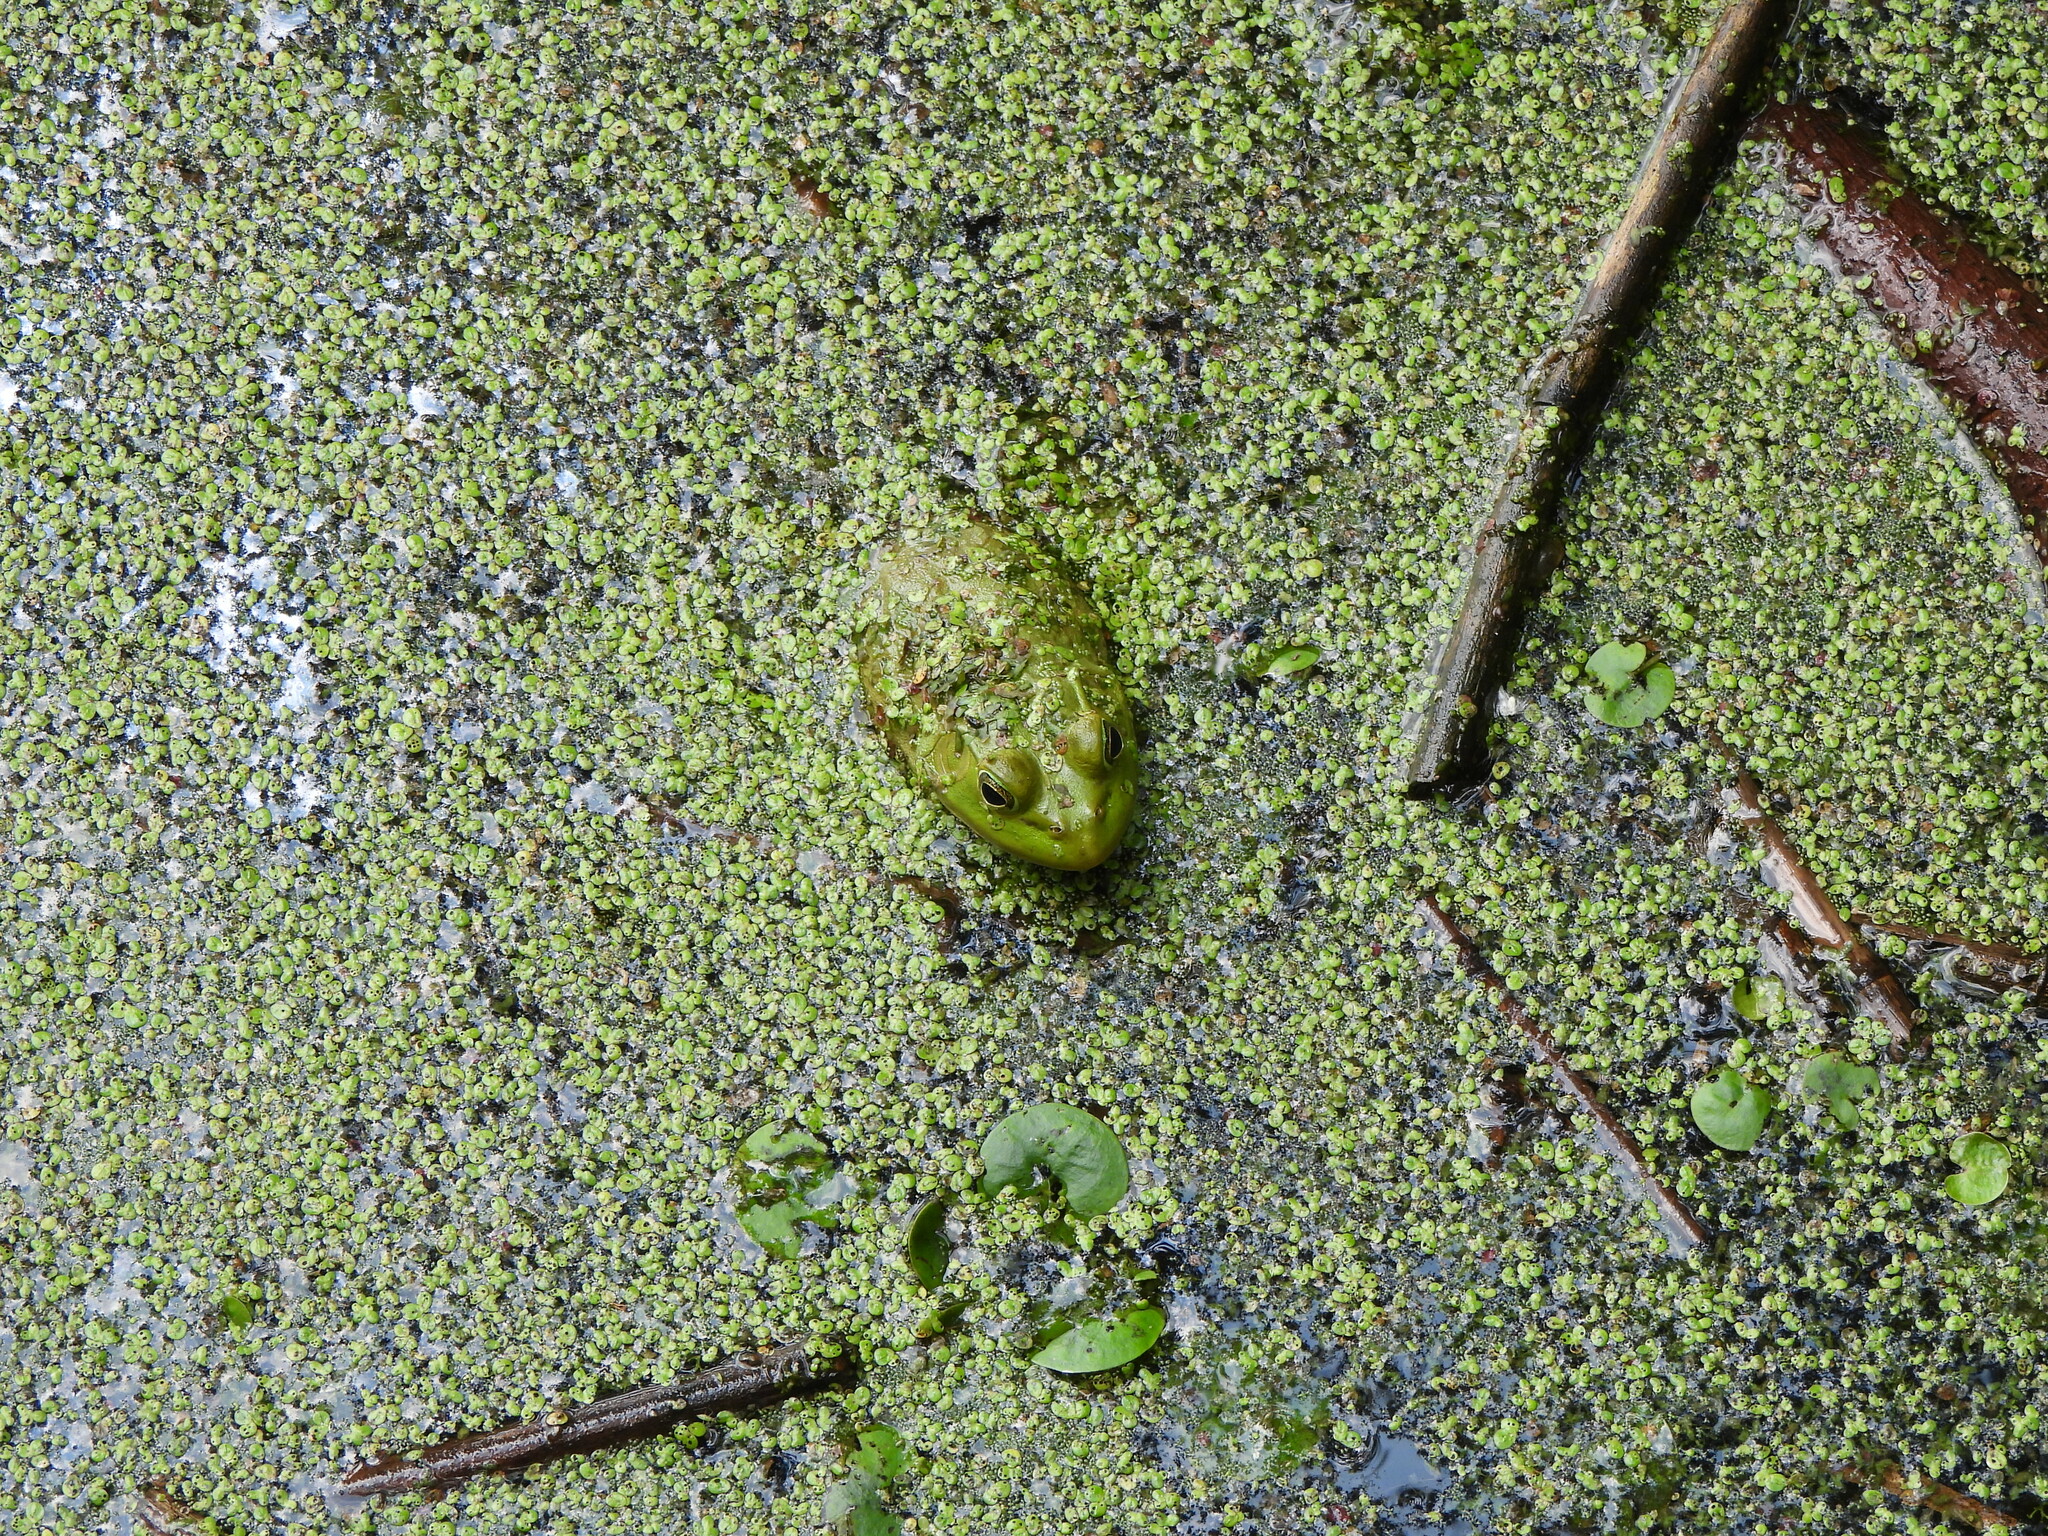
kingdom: Animalia
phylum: Chordata
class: Amphibia
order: Anura
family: Ranidae
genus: Lithobates
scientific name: Lithobates catesbeianus
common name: American bullfrog
